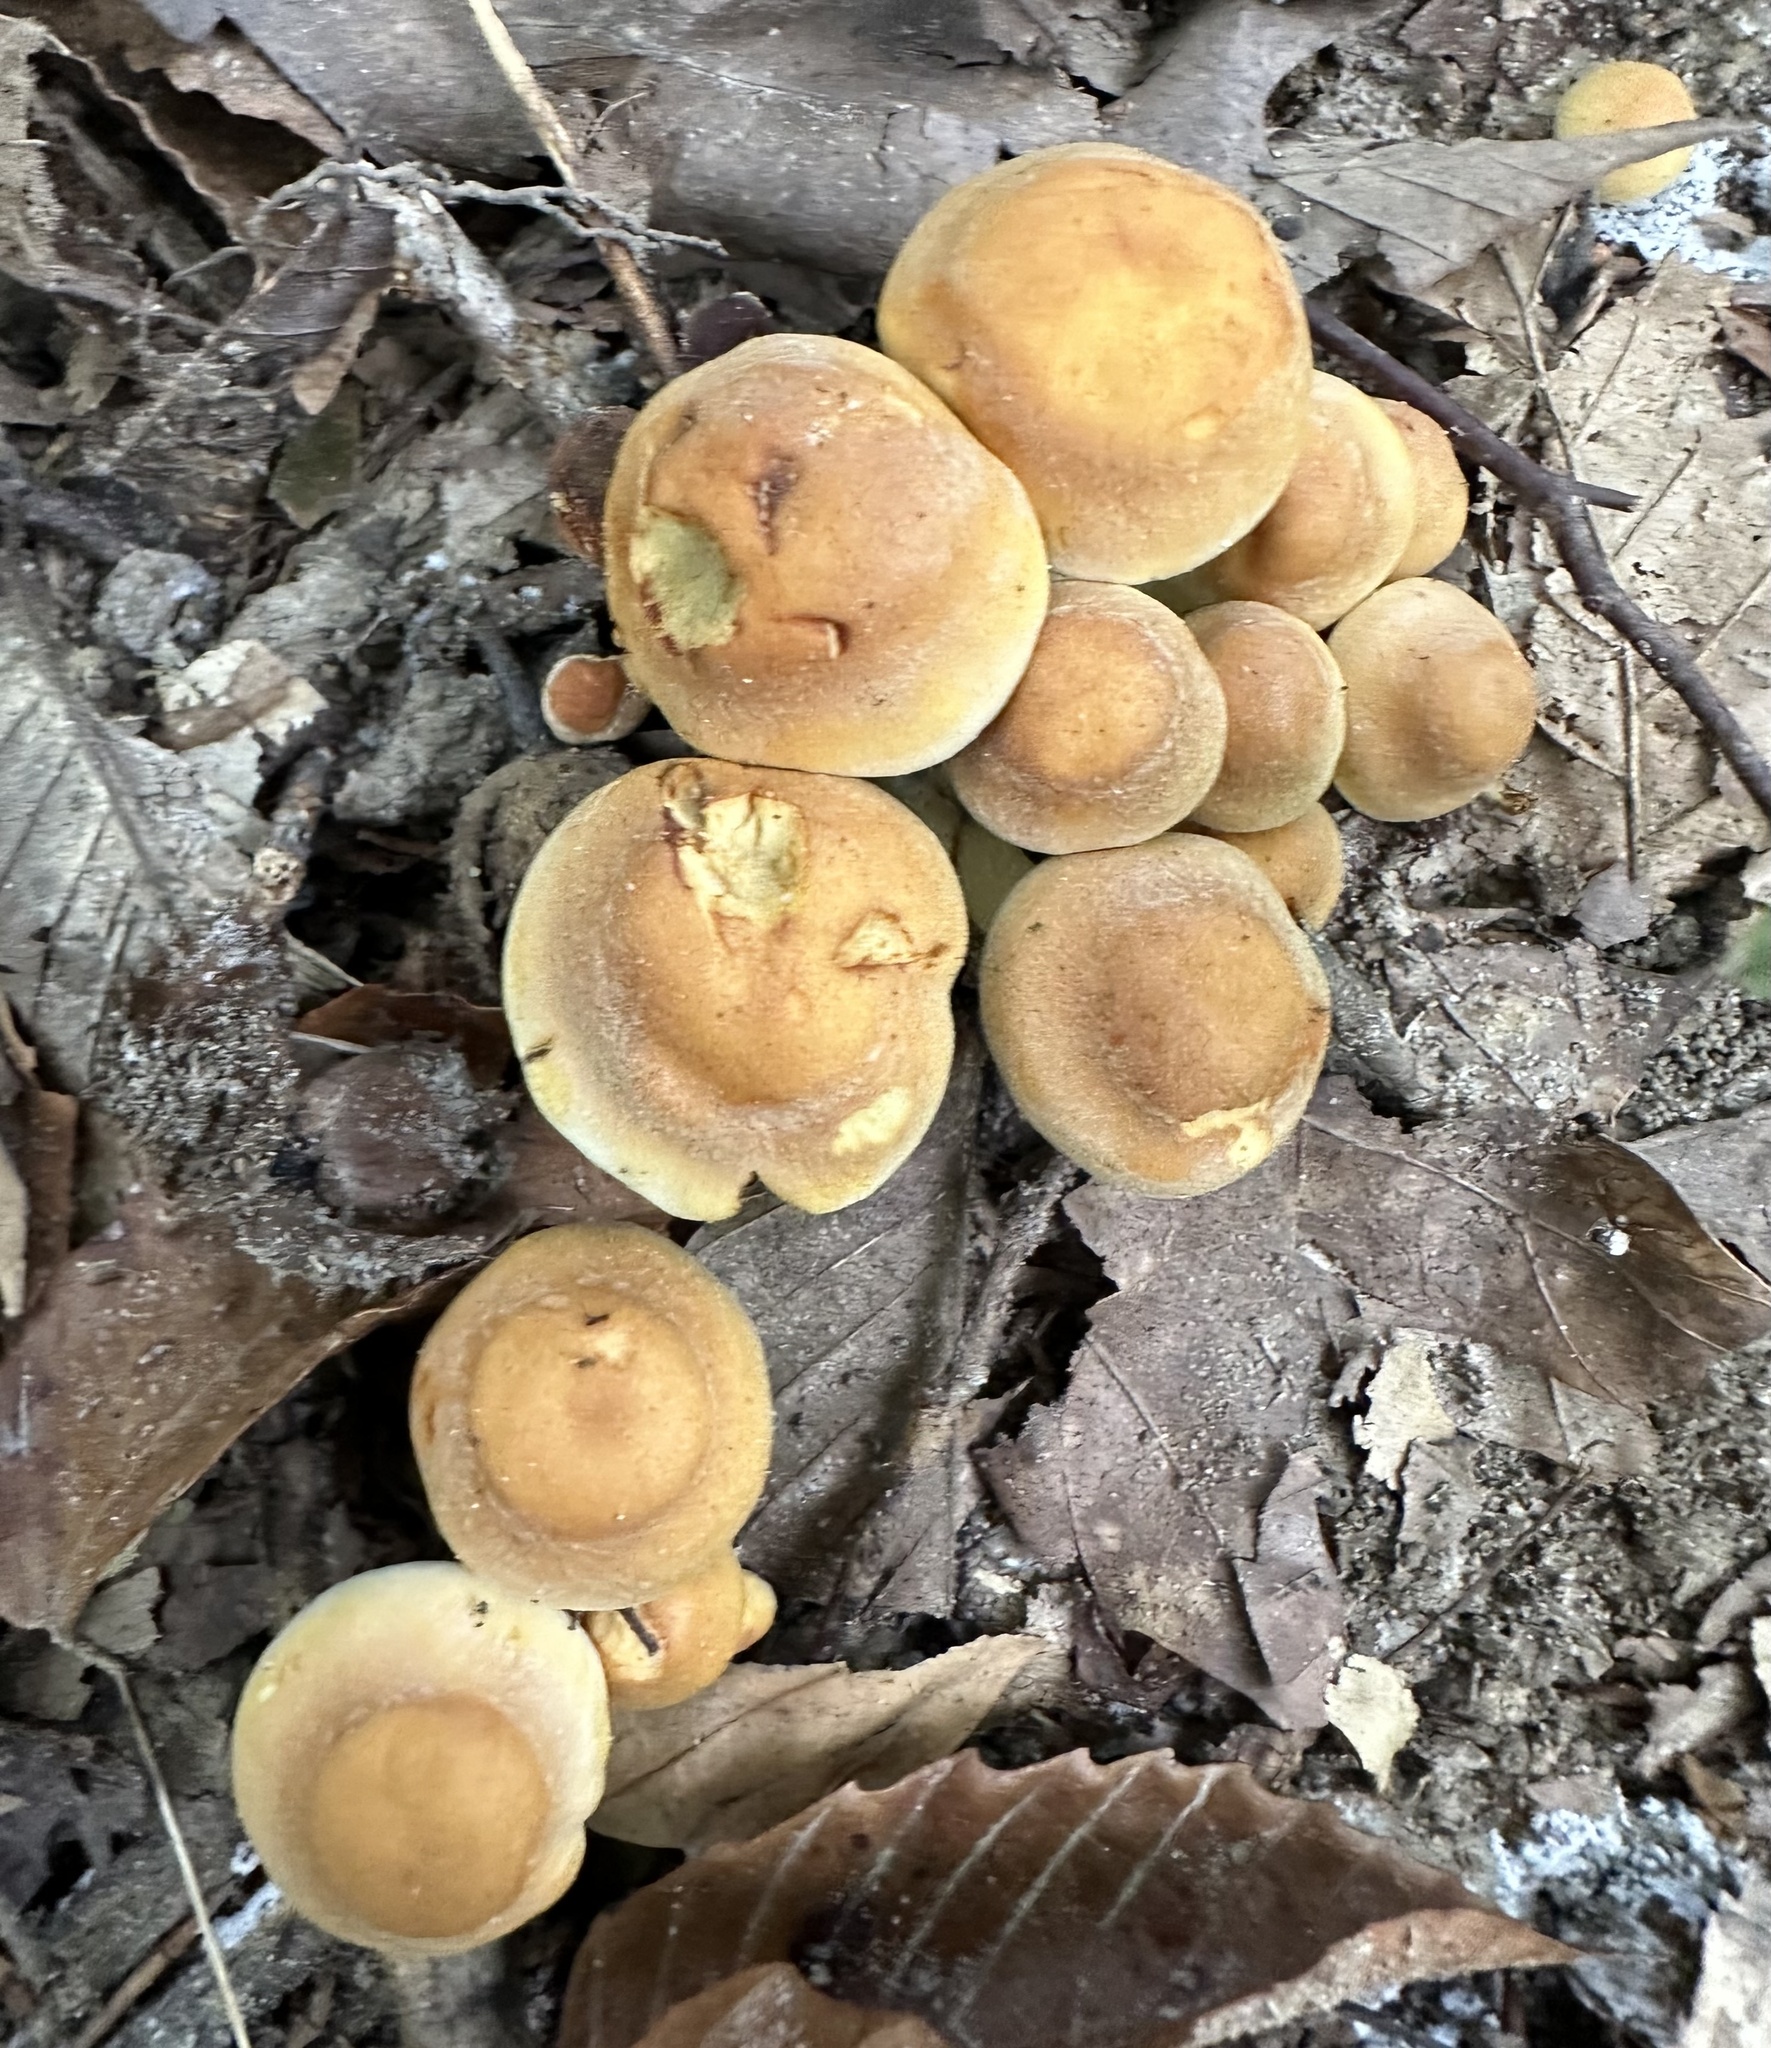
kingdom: Fungi
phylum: Basidiomycota
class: Agaricomycetes
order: Agaricales
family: Strophariaceae
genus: Hypholoma
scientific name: Hypholoma fasciculare
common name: Sulphur tuft
